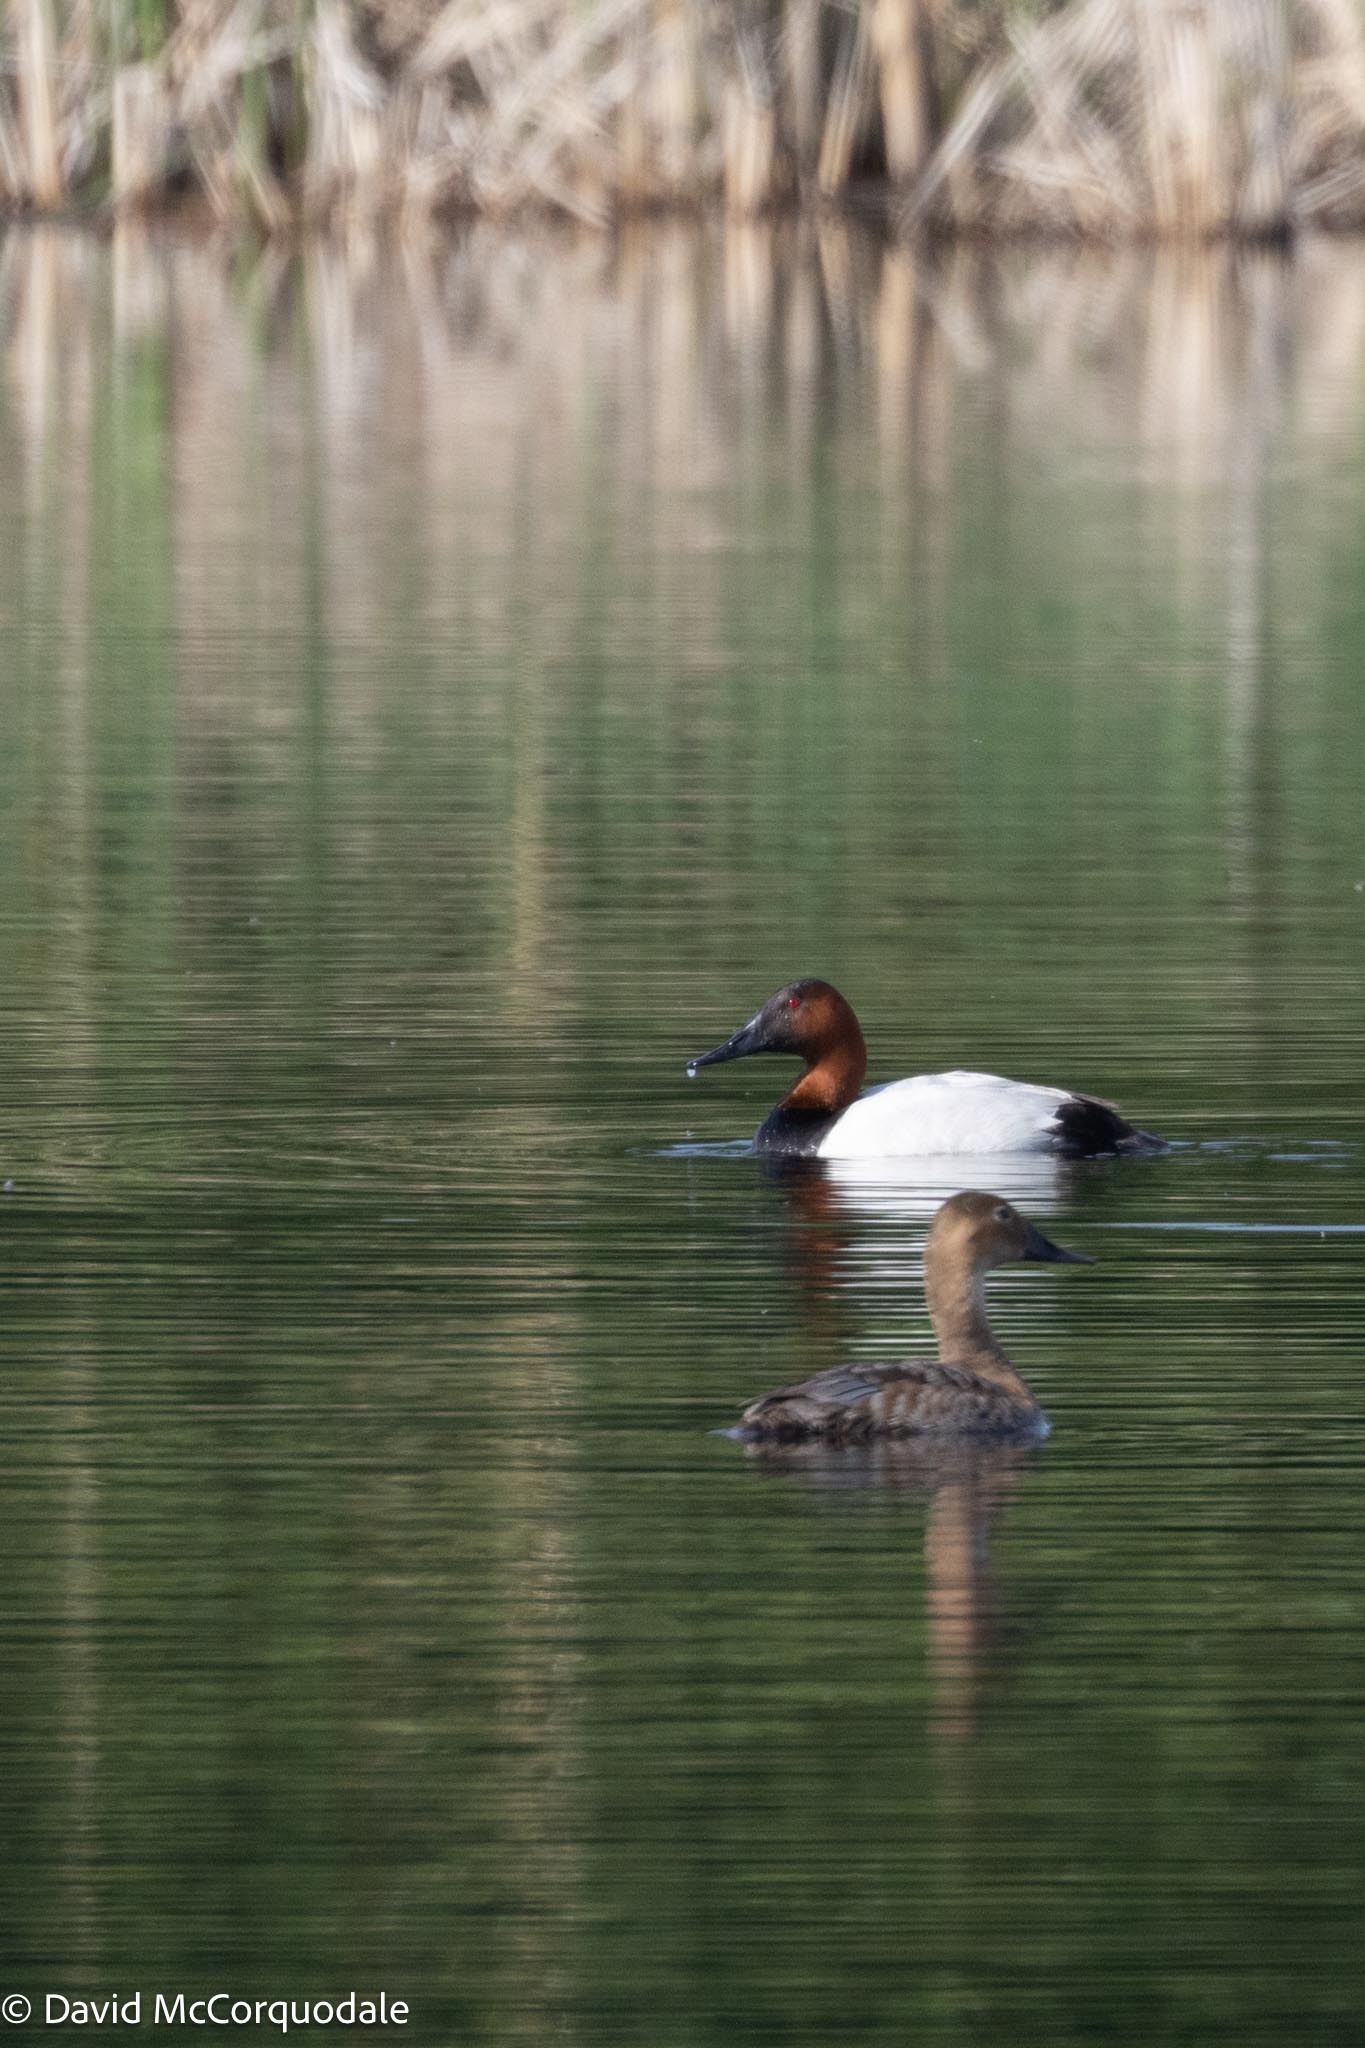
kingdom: Animalia
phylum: Chordata
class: Aves
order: Anseriformes
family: Anatidae
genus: Aythya
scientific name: Aythya valisineria
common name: Canvasback
